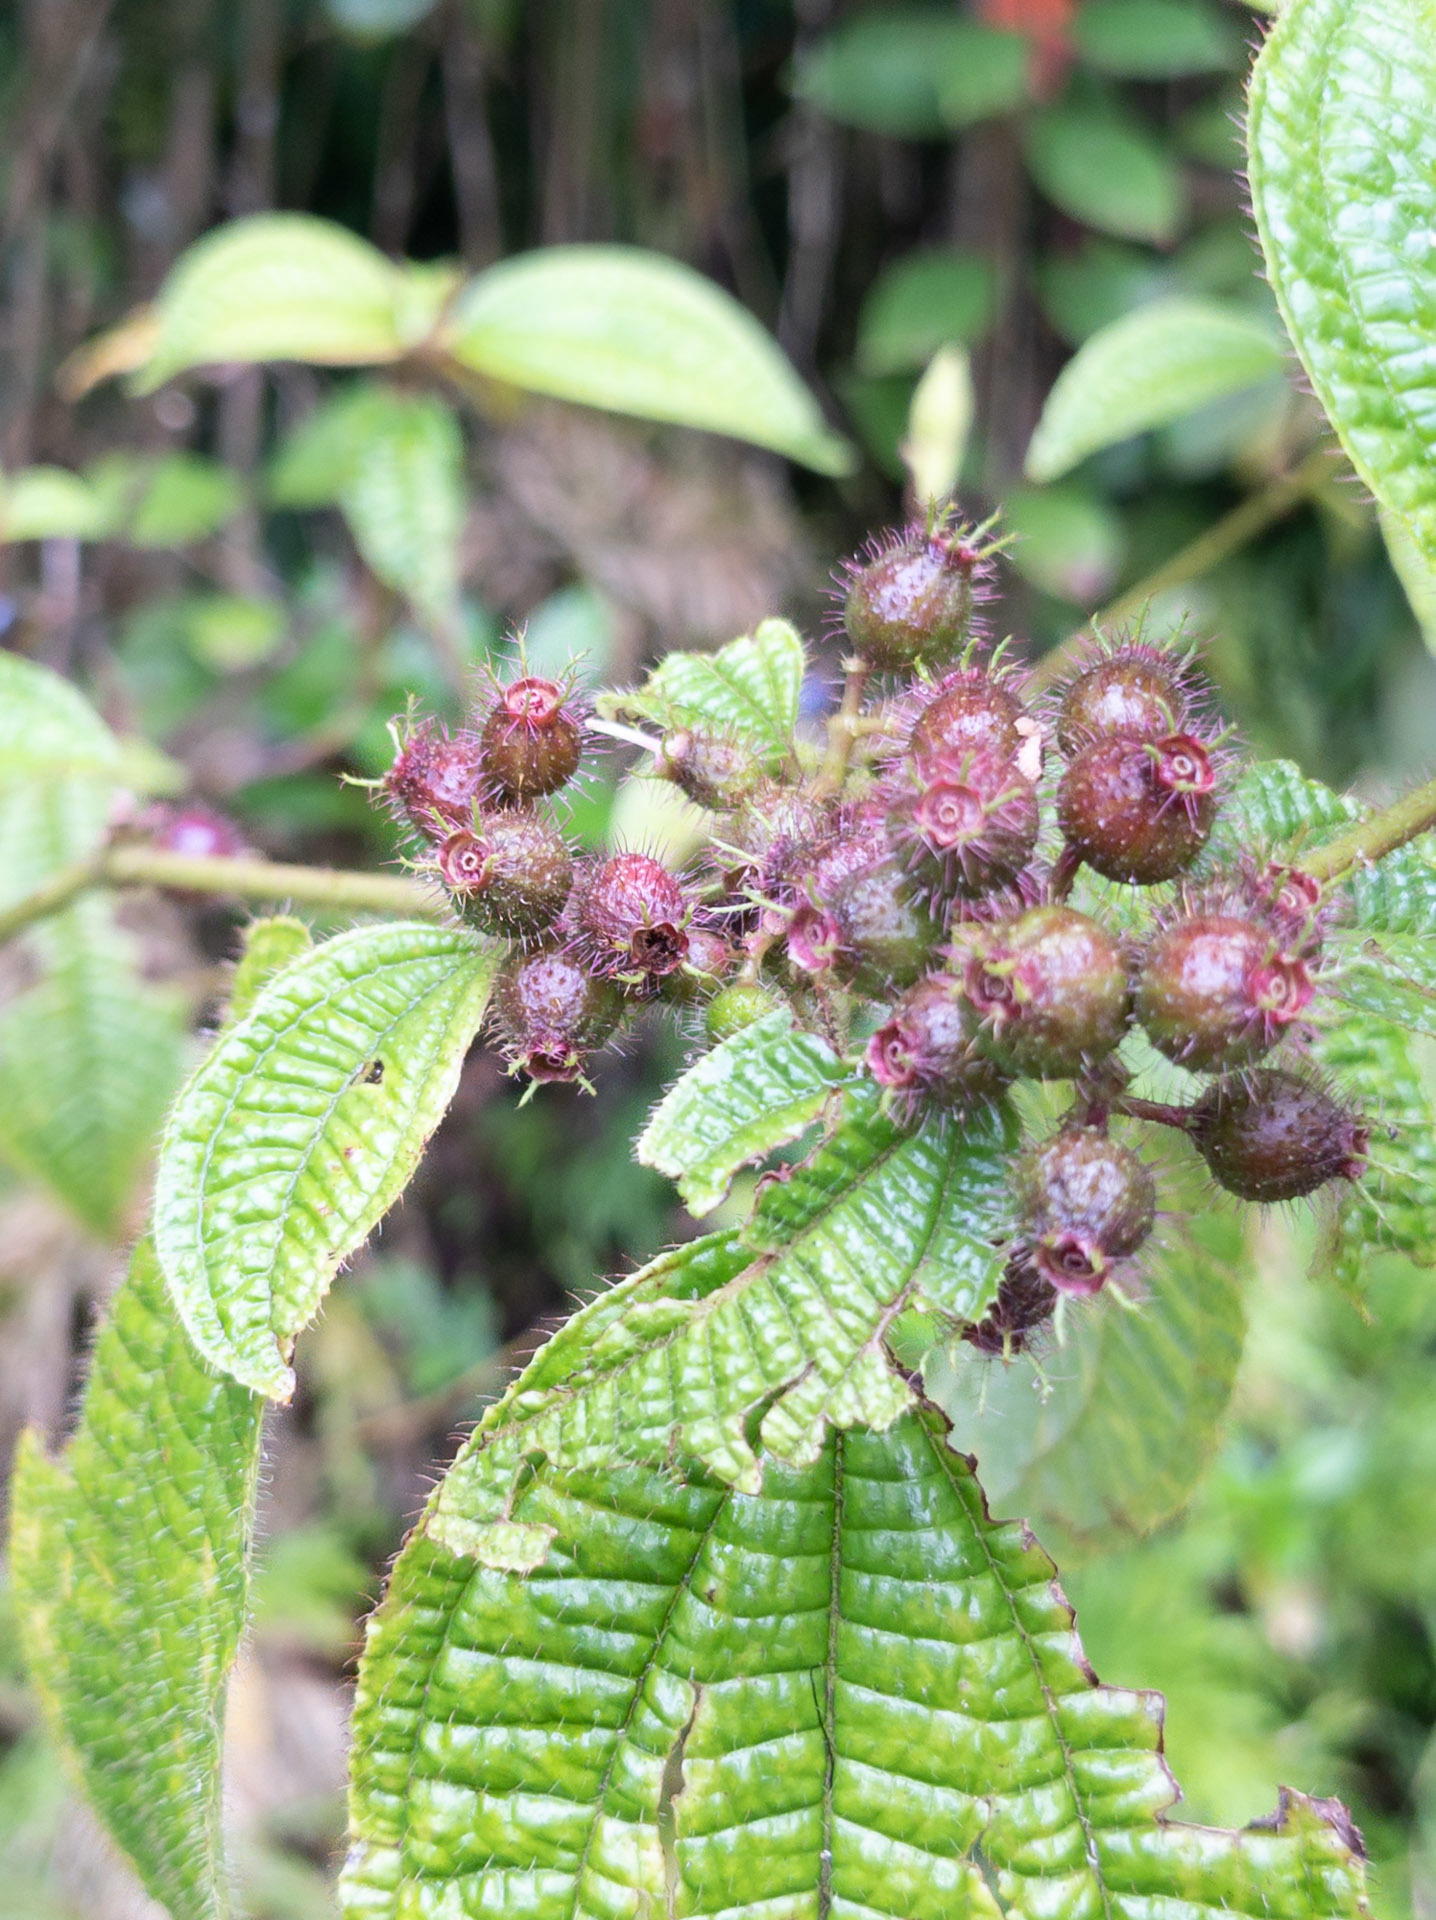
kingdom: Plantae
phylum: Tracheophyta
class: Magnoliopsida
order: Myrtales
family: Melastomataceae
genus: Miconia
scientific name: Miconia crenata
